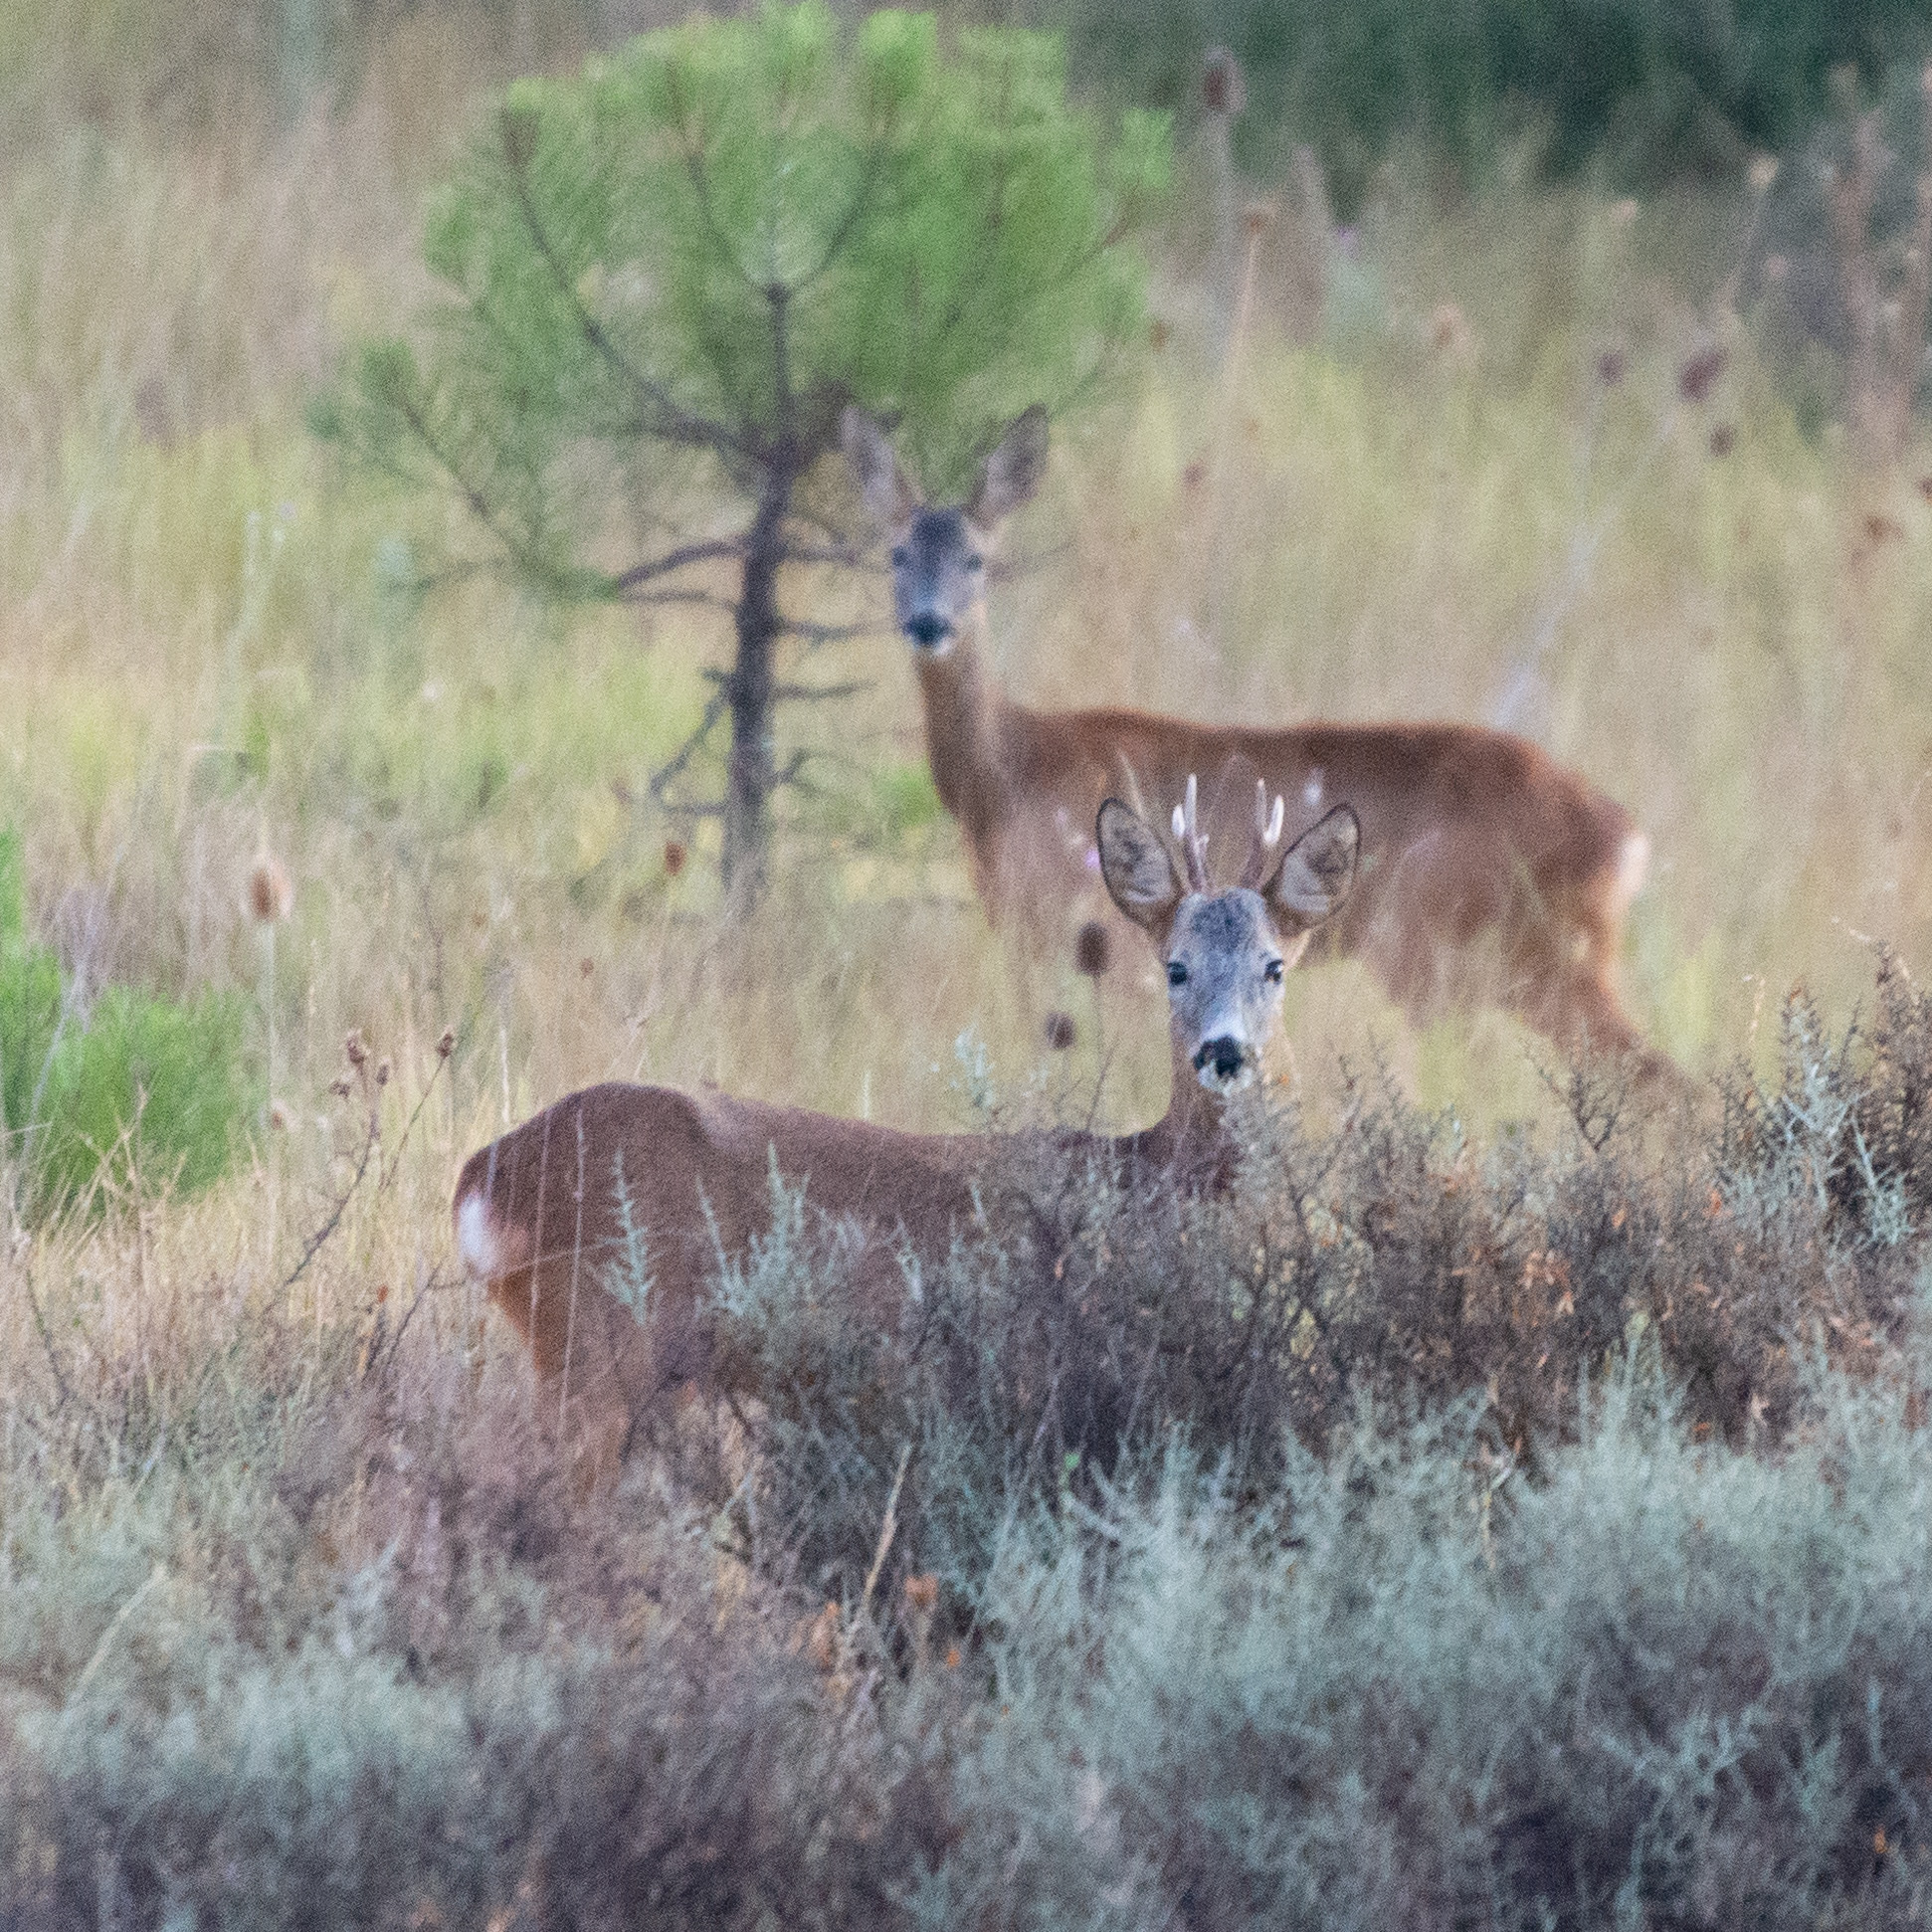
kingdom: Animalia
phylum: Chordata
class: Mammalia
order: Artiodactyla
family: Cervidae
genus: Capreolus
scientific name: Capreolus capreolus
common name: Western roe deer
